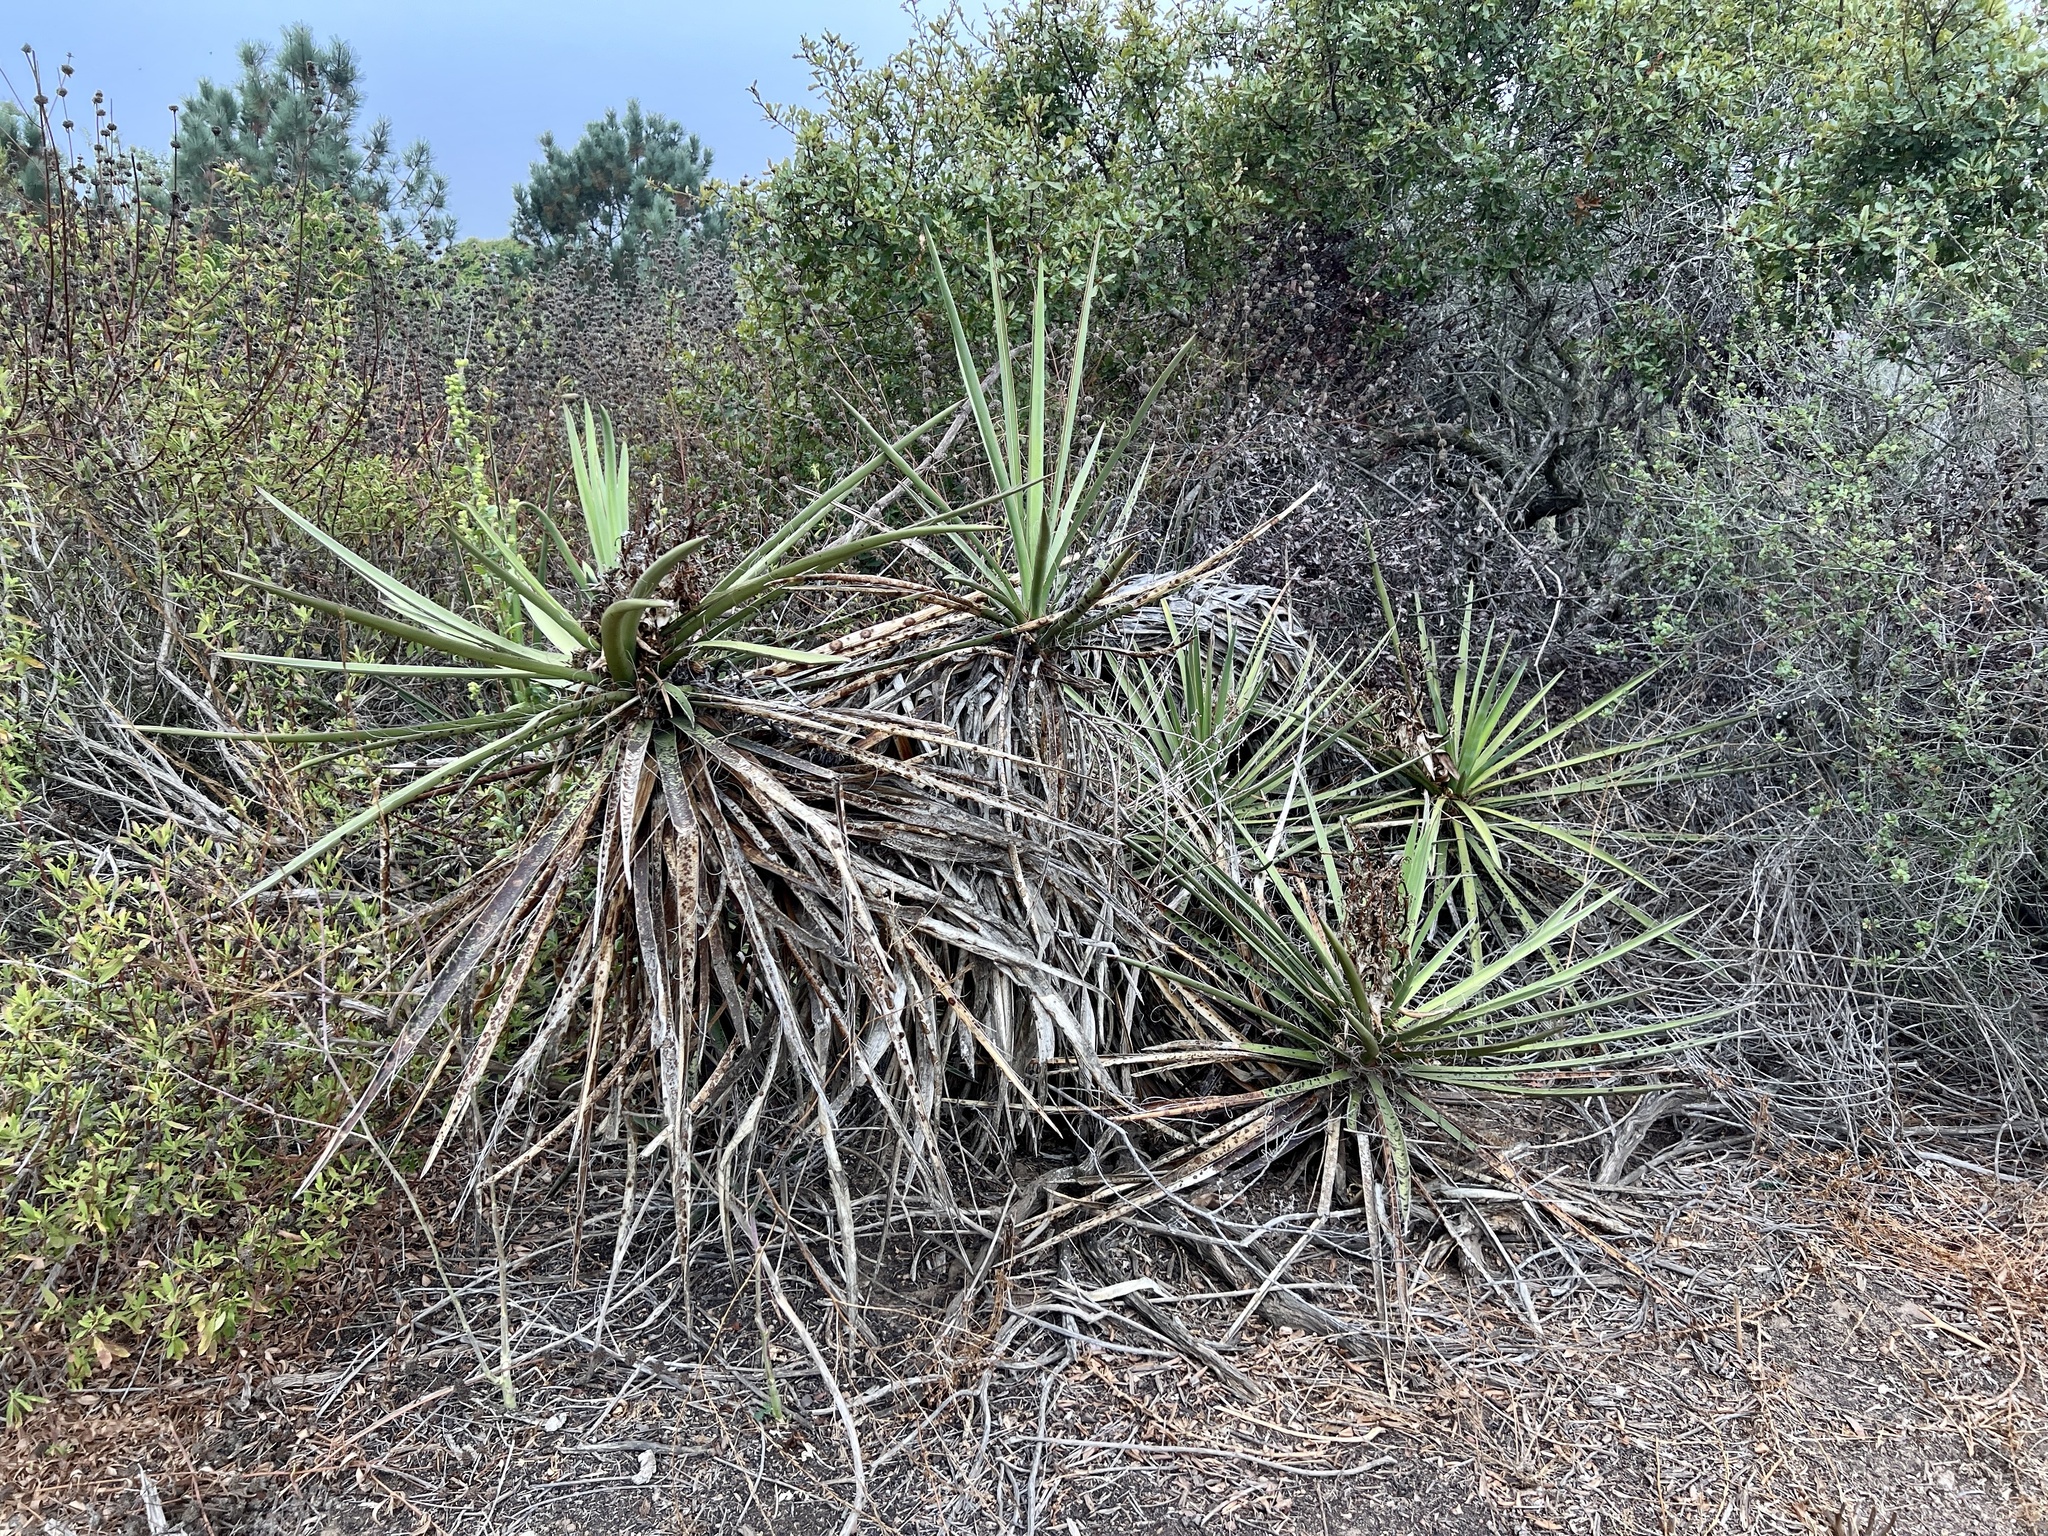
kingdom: Plantae
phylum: Tracheophyta
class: Liliopsida
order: Asparagales
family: Asparagaceae
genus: Yucca
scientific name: Yucca schidigera
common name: Mojave yucca
